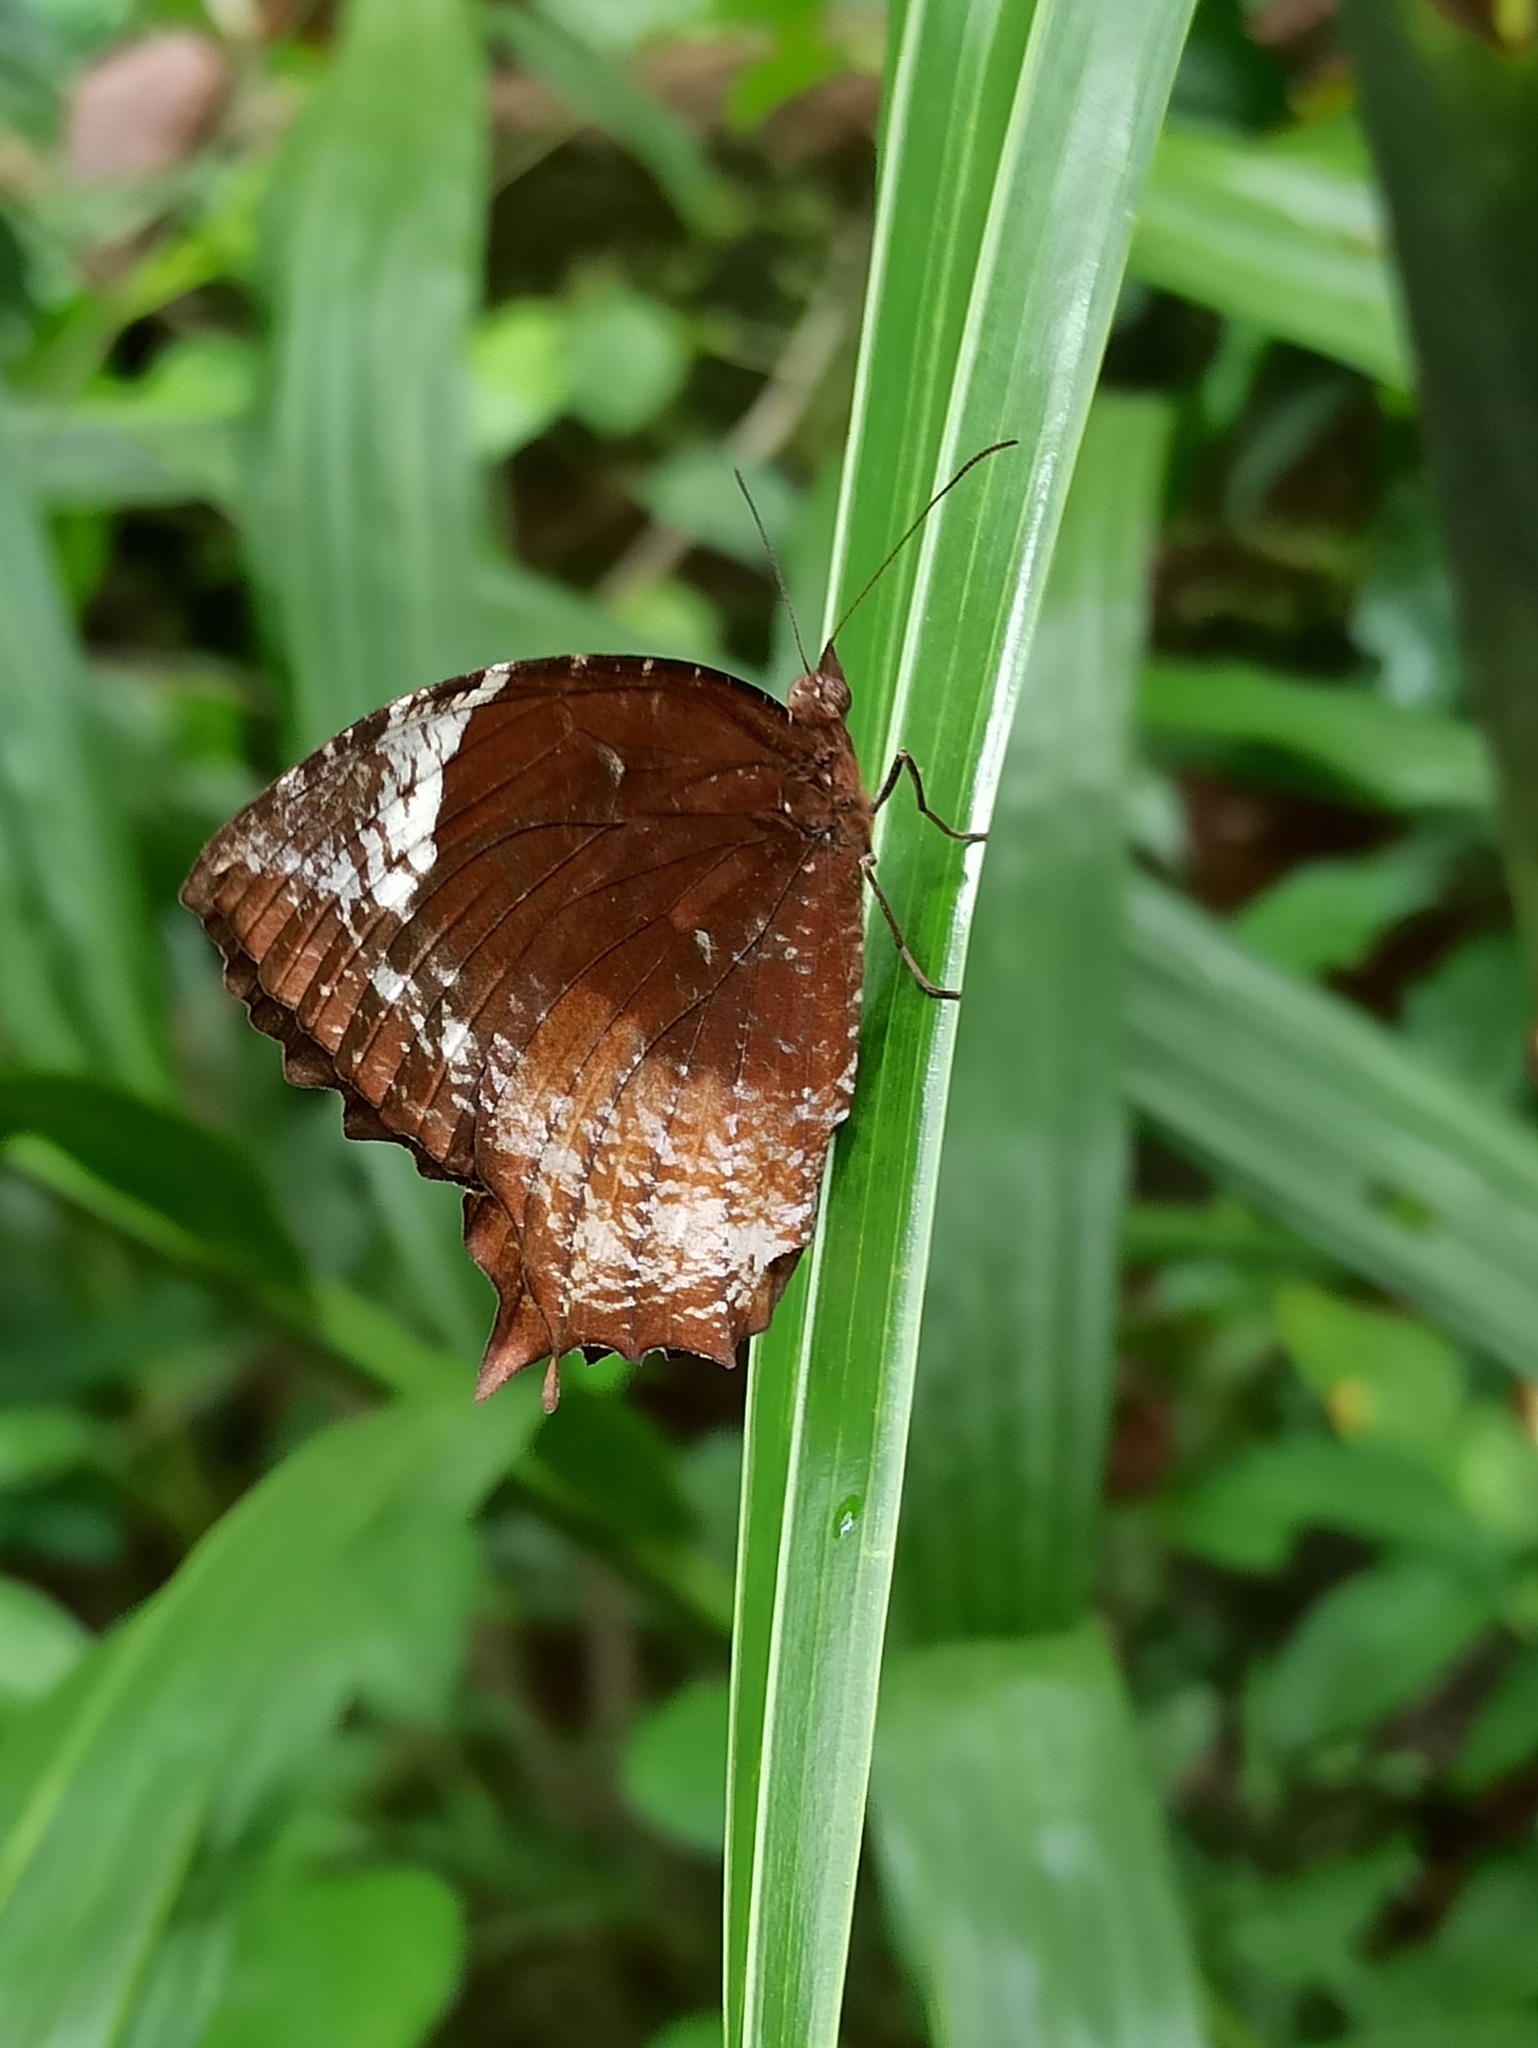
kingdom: Animalia
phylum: Arthropoda
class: Insecta
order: Lepidoptera
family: Nymphalidae
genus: Elymnias
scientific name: Elymnias caudata
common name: Tailed palmfly
